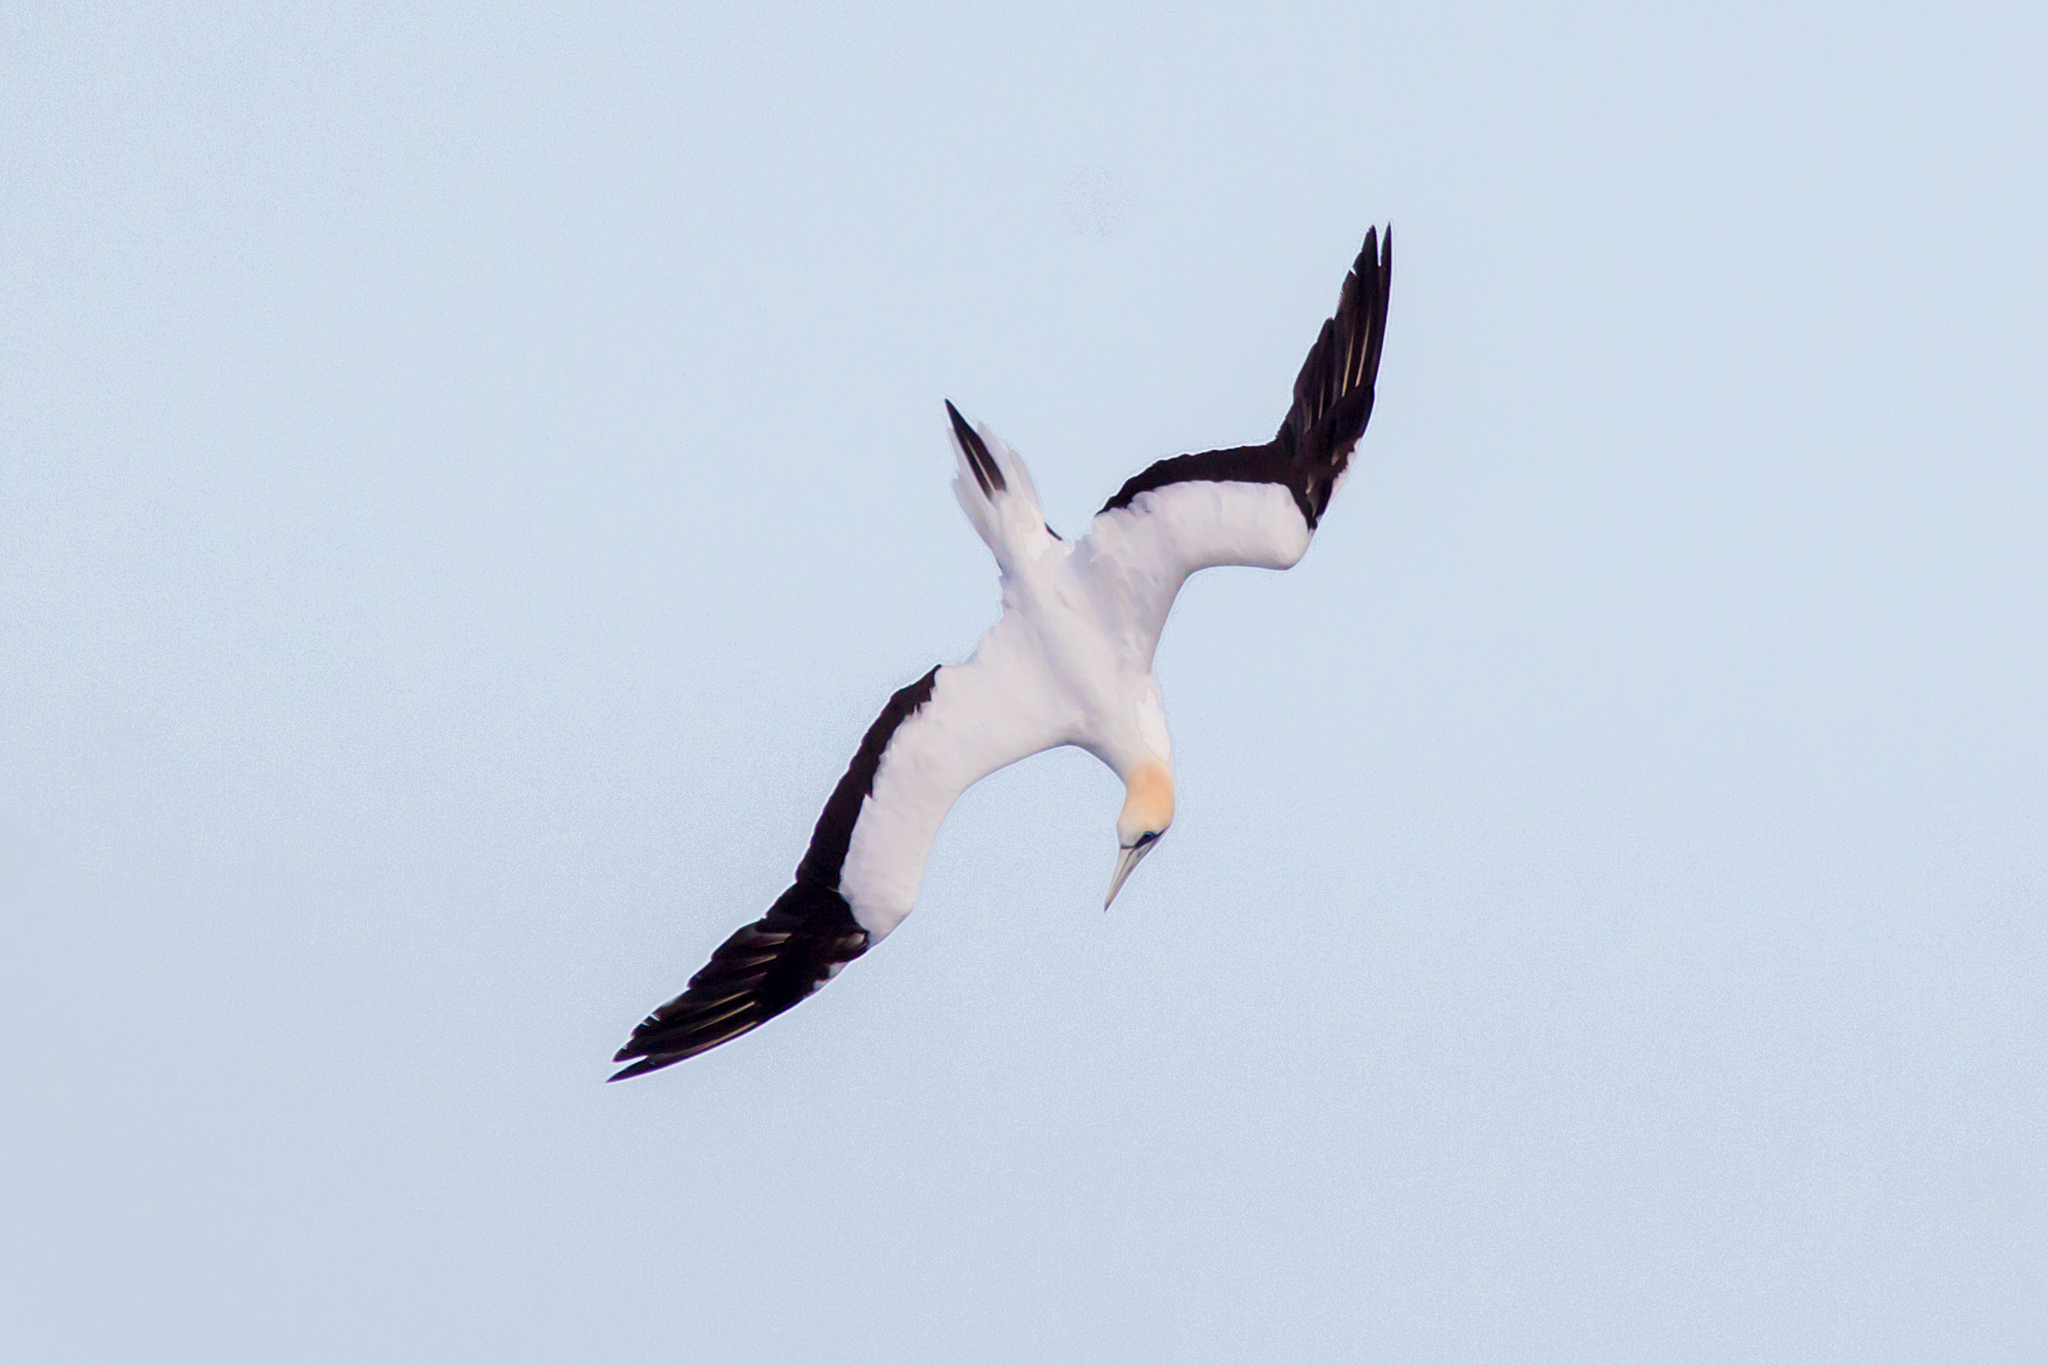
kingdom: Animalia
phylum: Chordata
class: Aves
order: Suliformes
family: Sulidae
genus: Morus
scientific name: Morus serrator
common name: Australasian gannet
